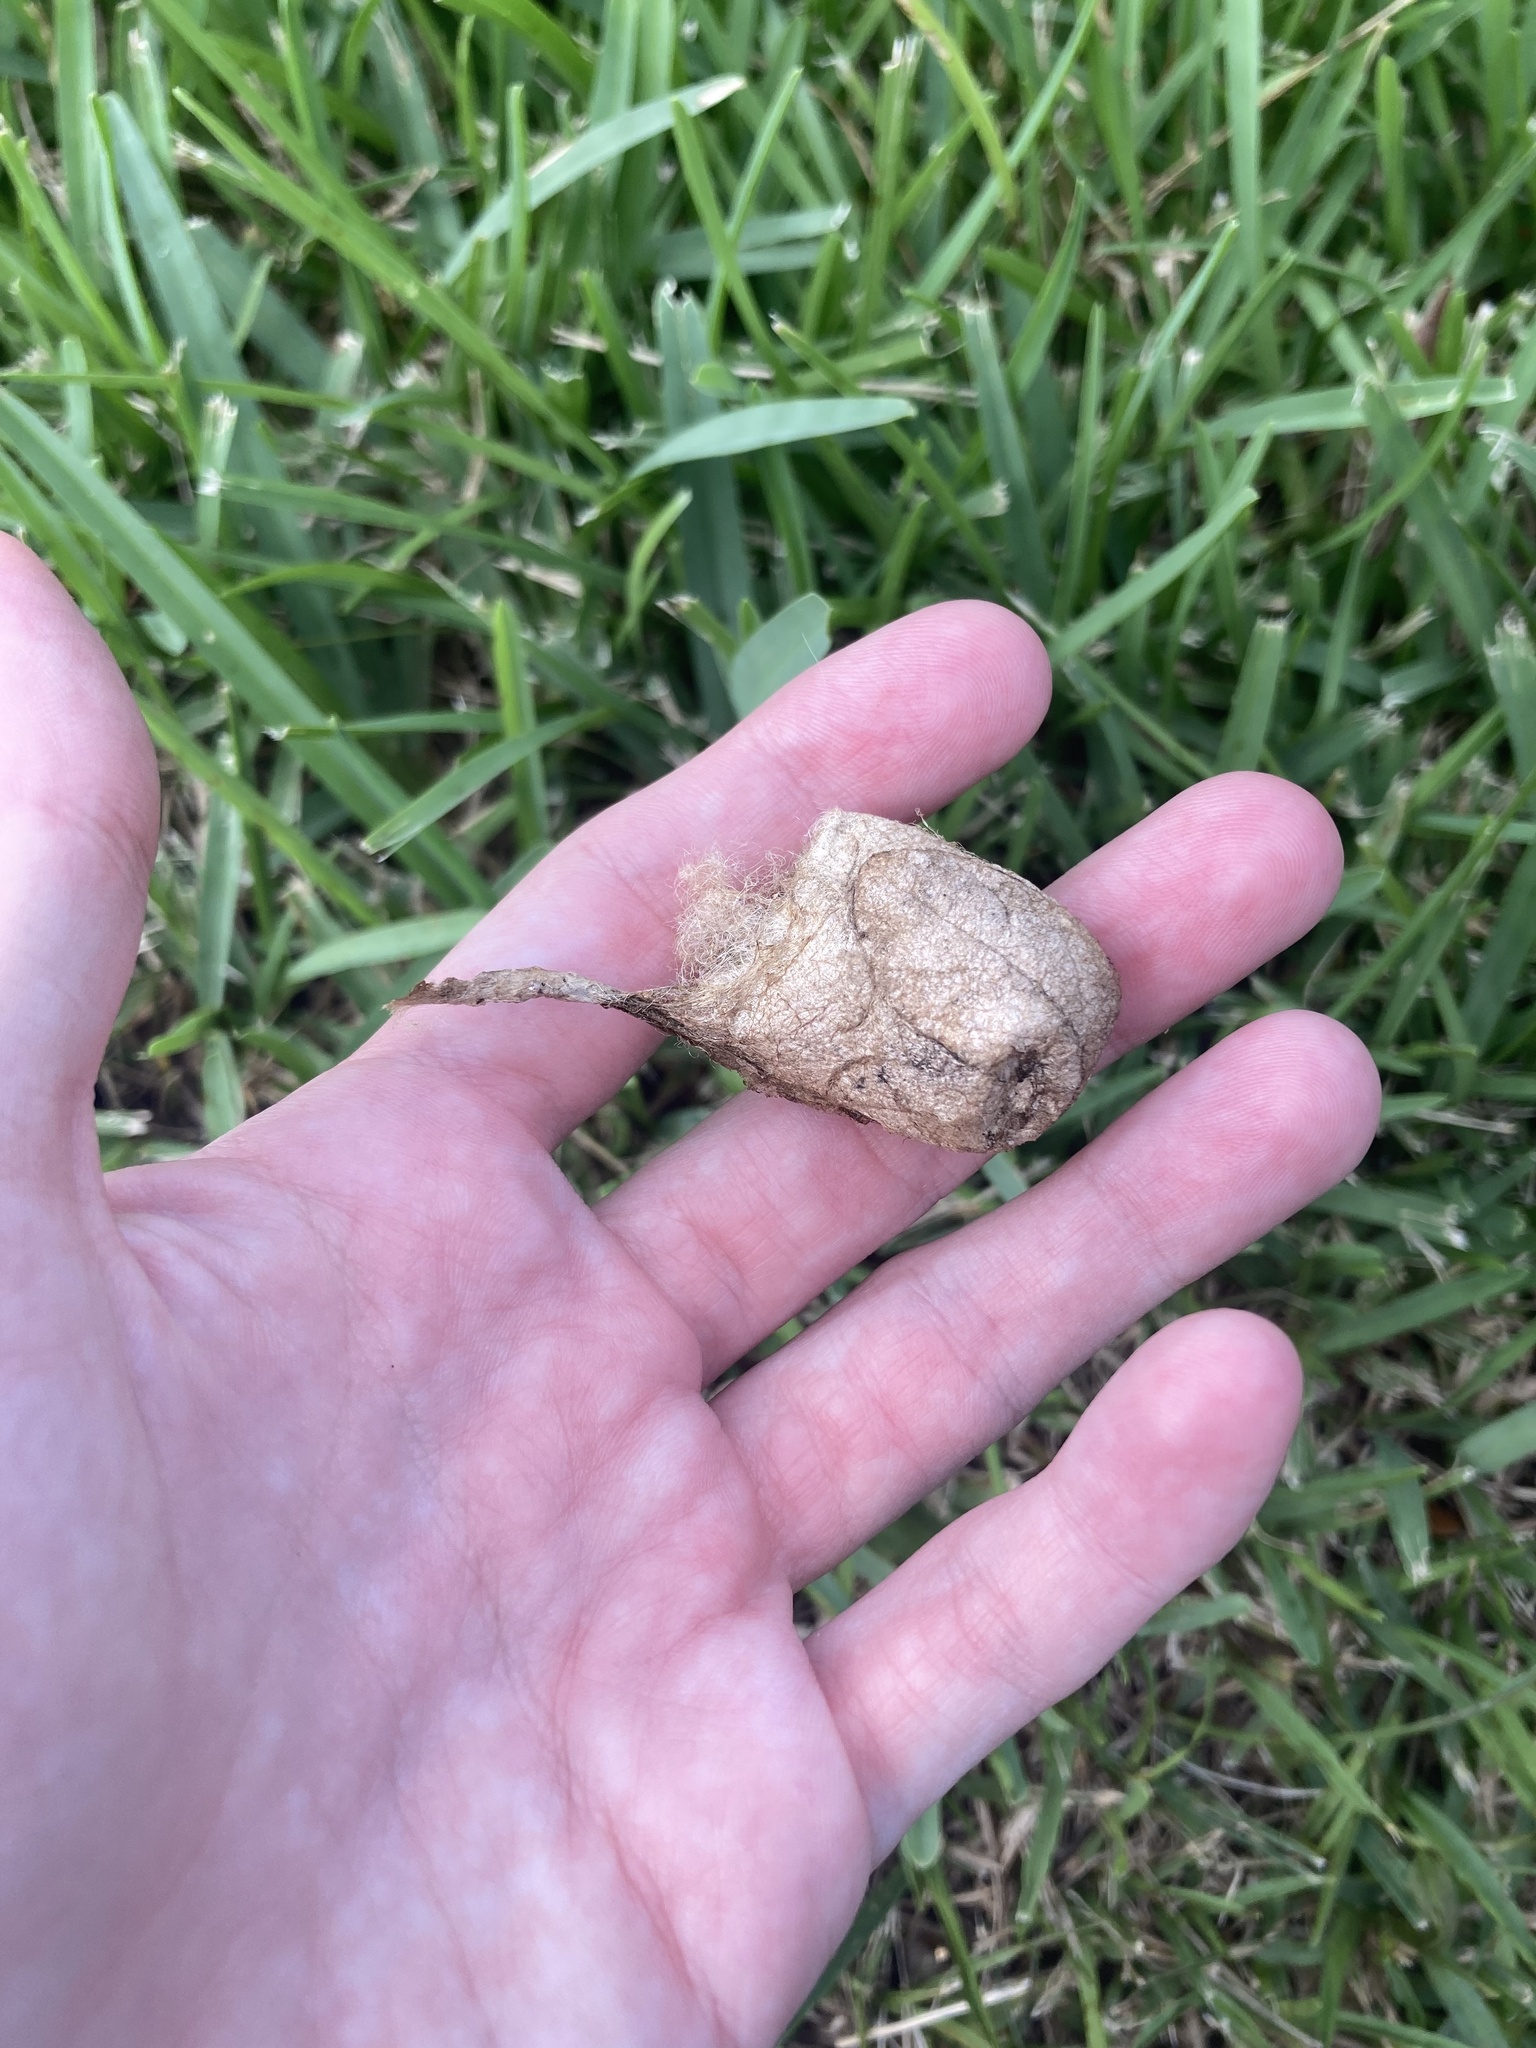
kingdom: Animalia
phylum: Arthropoda
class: Insecta
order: Lepidoptera
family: Saturniidae
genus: Antheraea
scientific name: Antheraea polyphemus
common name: Polyphemus moth
